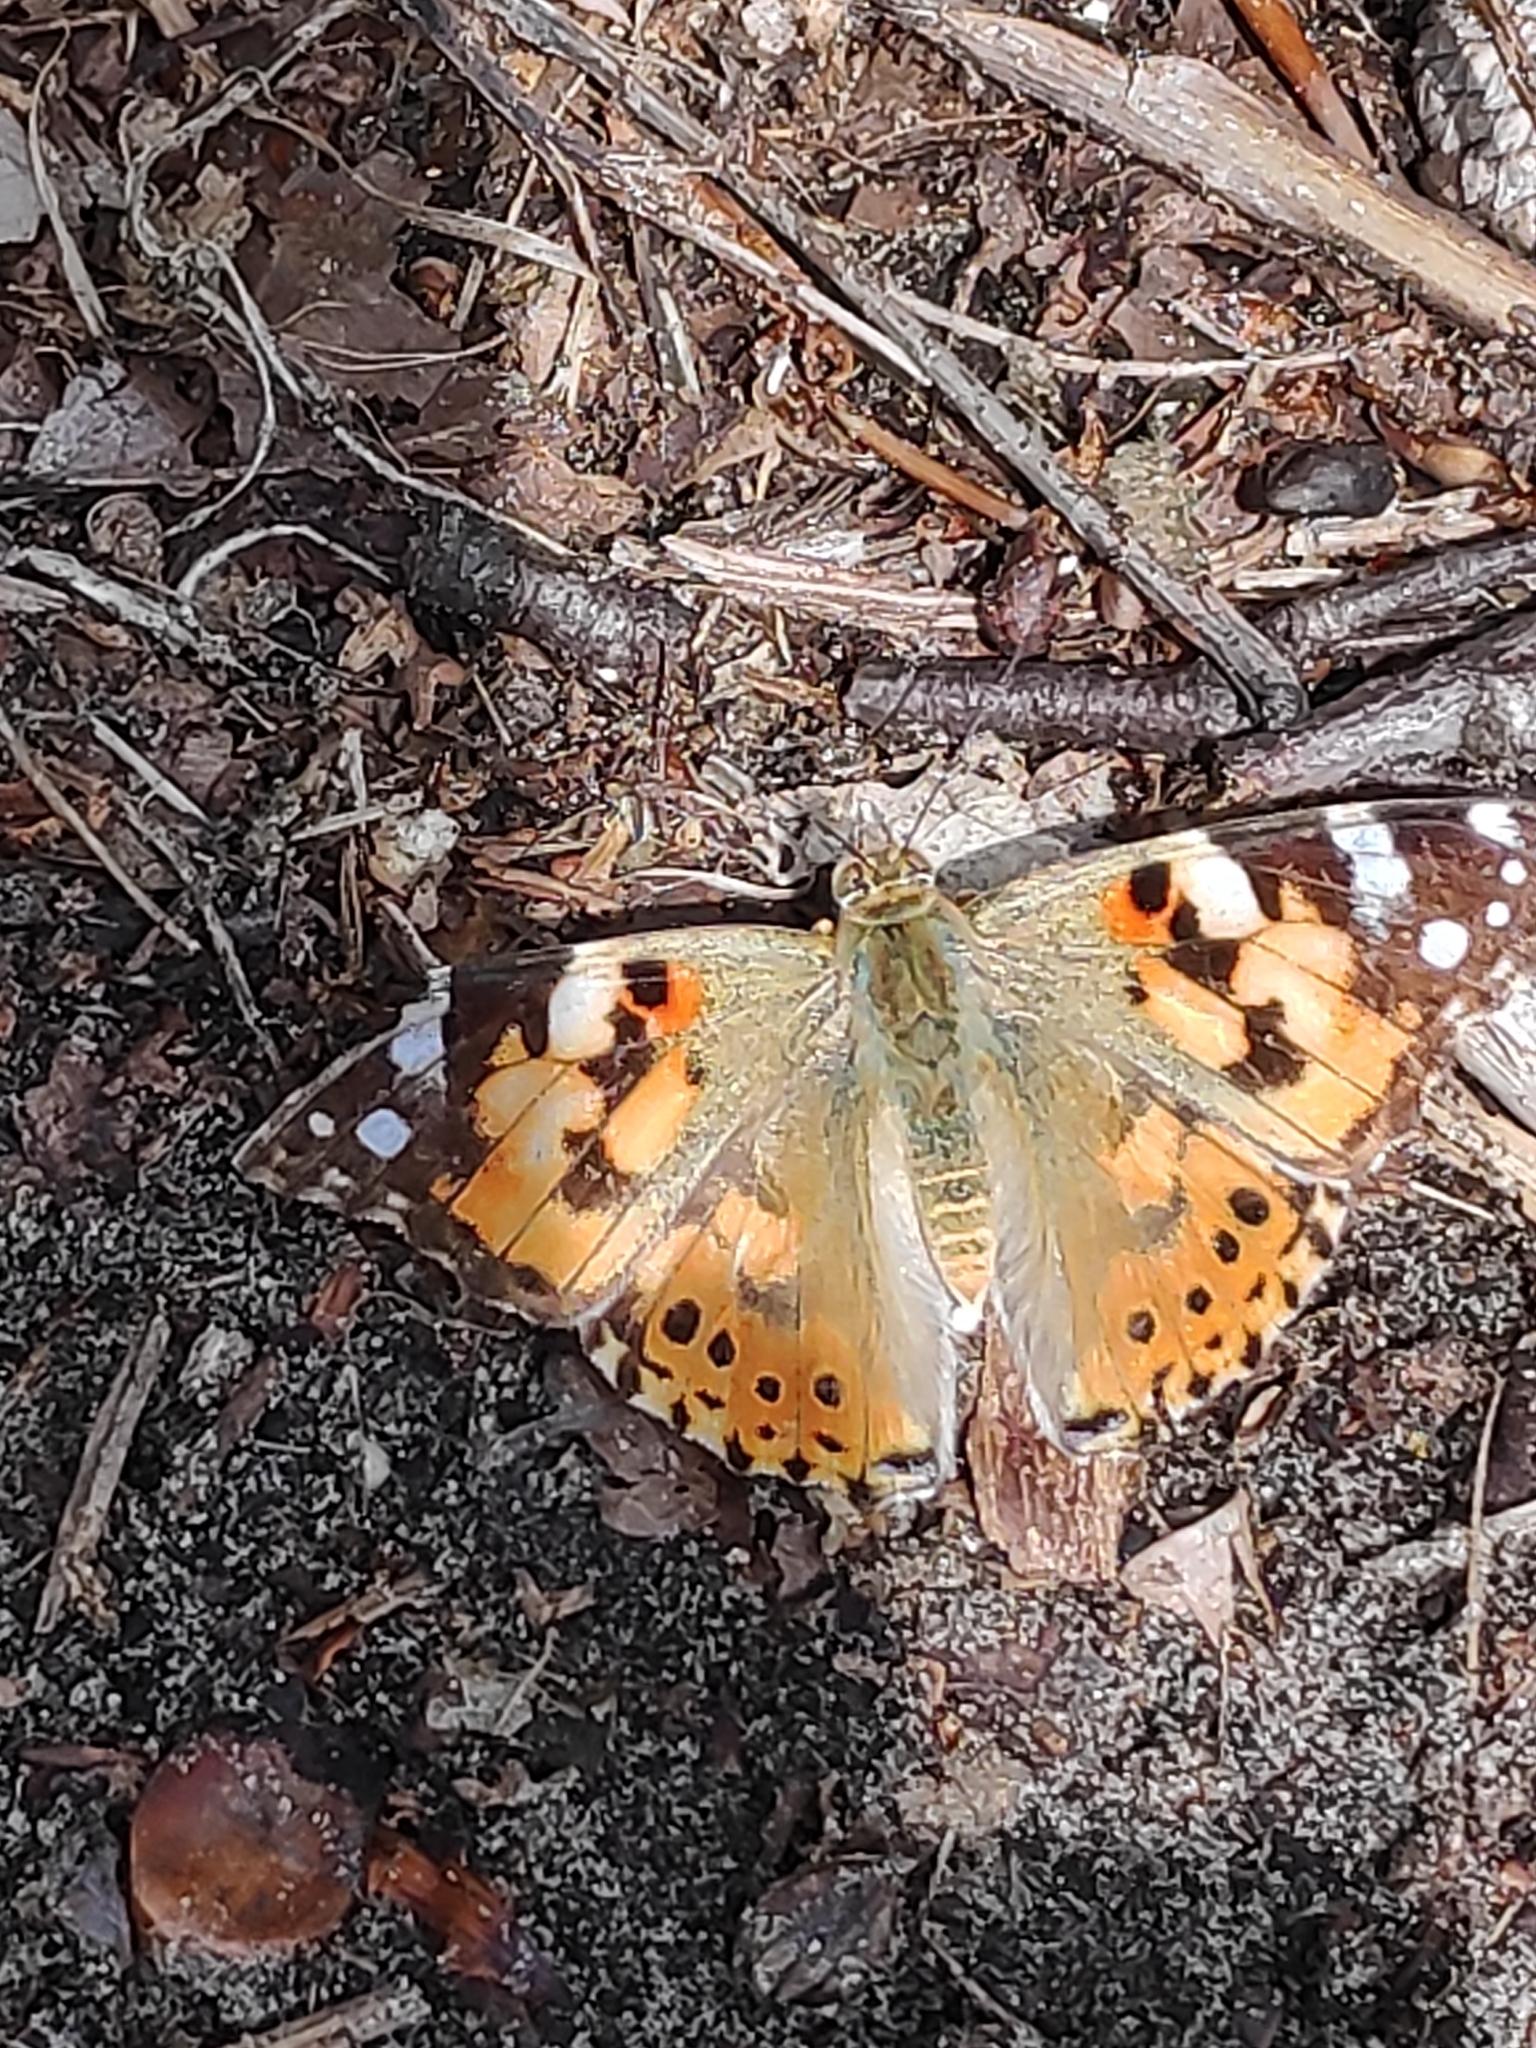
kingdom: Animalia
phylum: Arthropoda
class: Insecta
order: Lepidoptera
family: Nymphalidae
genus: Vanessa
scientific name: Vanessa cardui
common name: Painted lady
